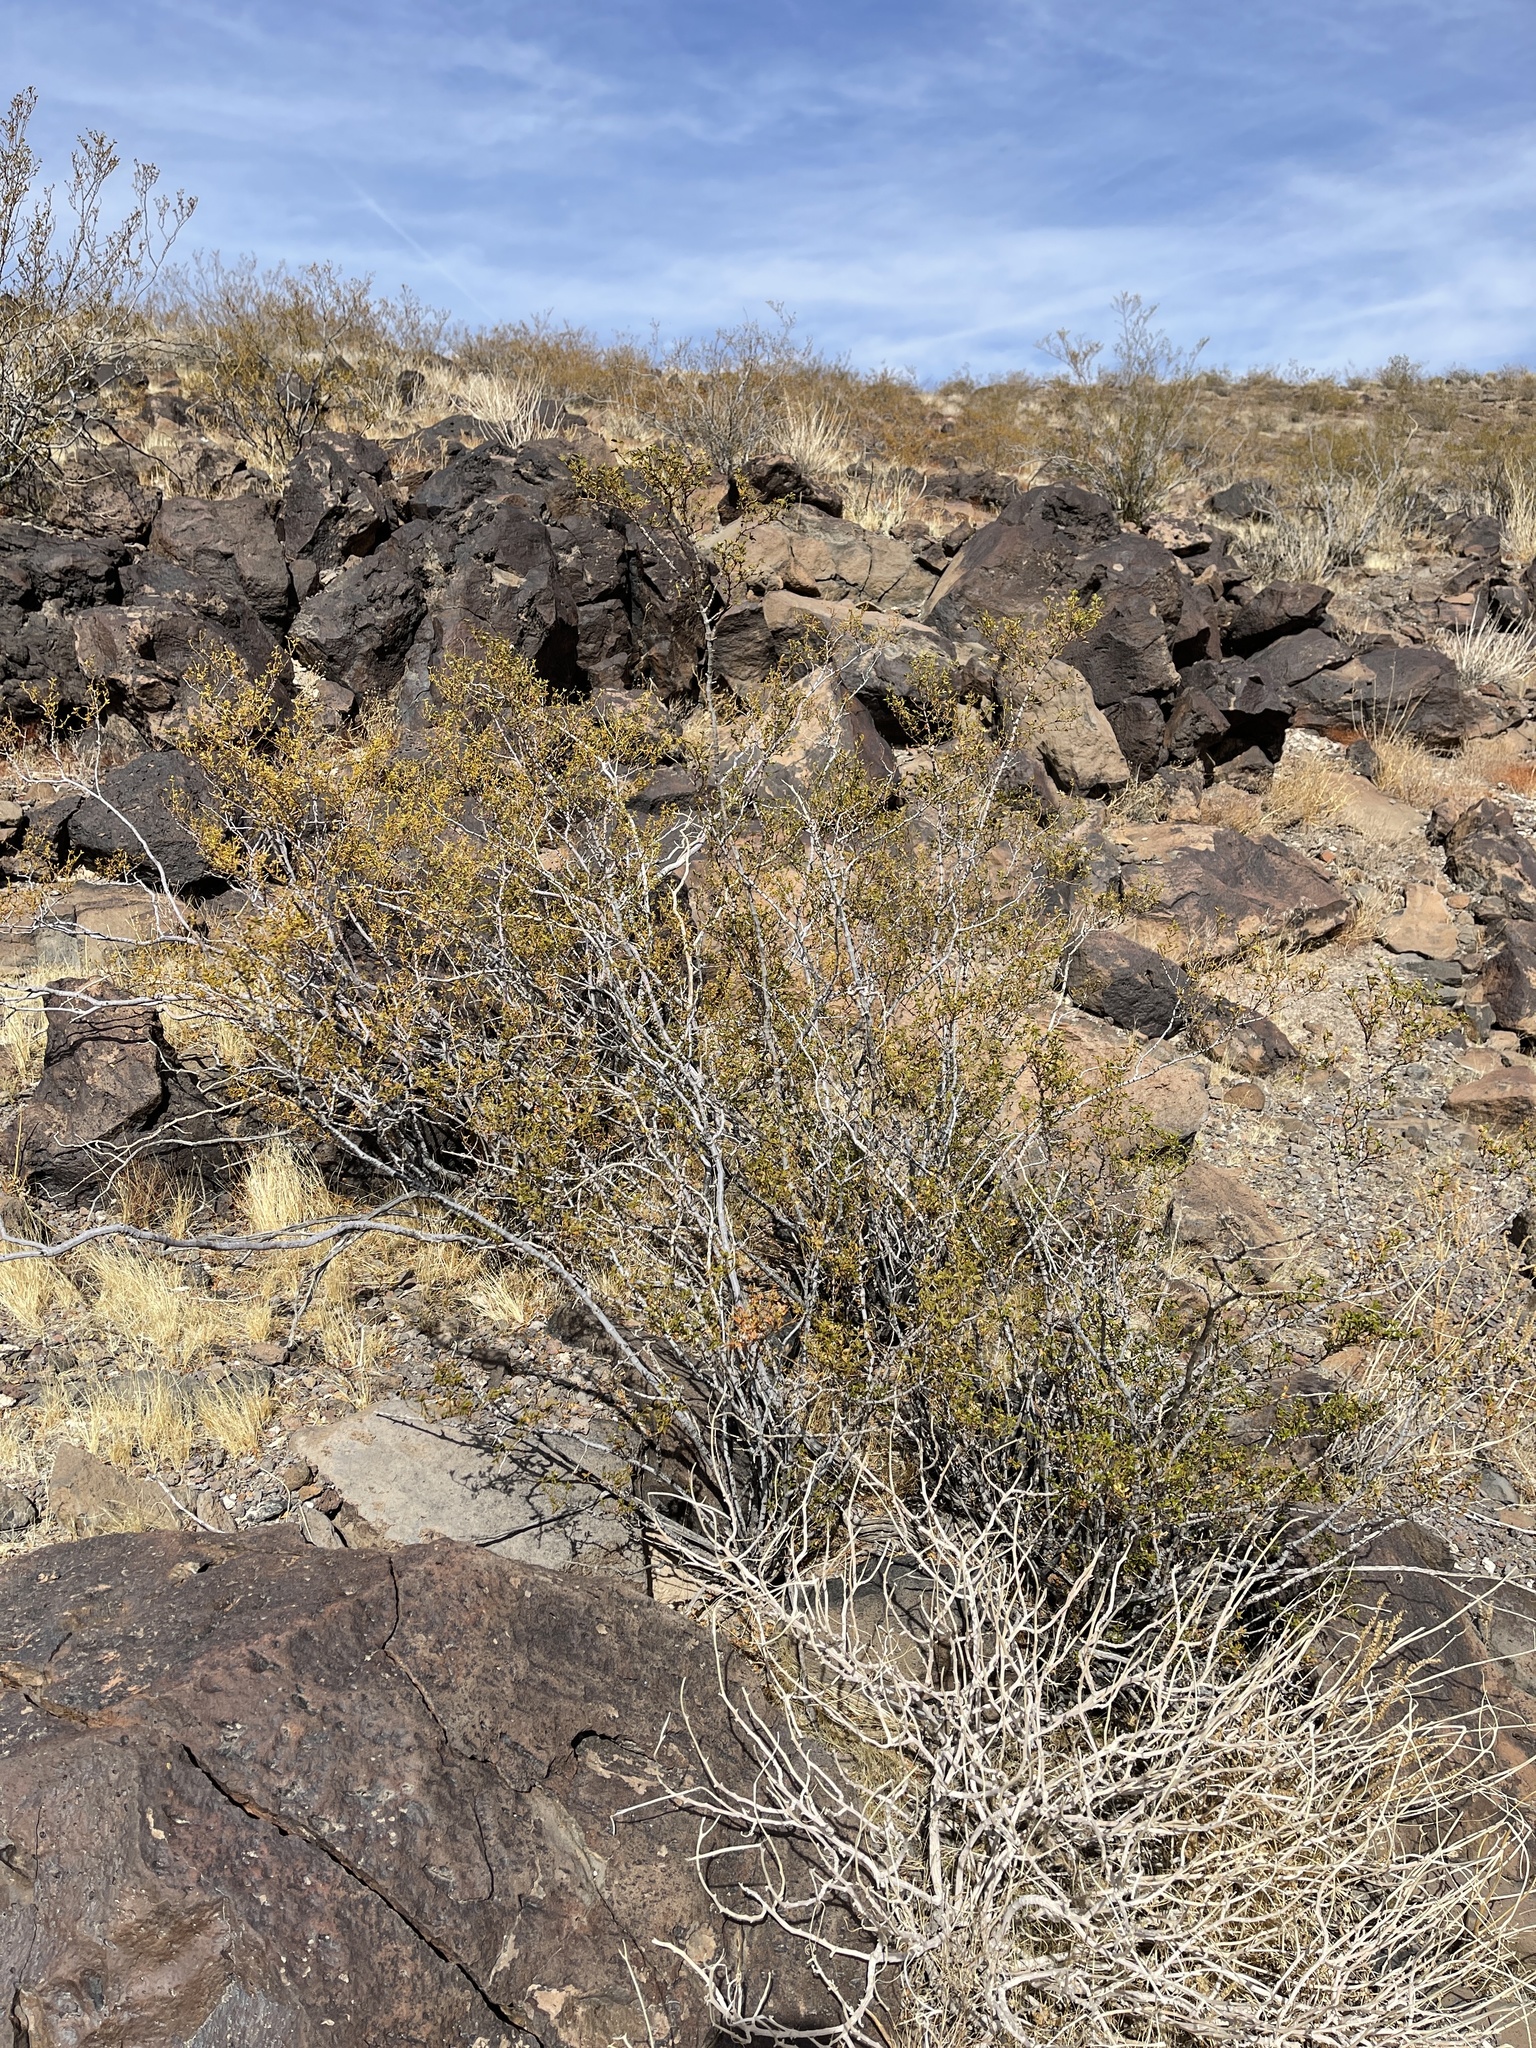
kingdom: Plantae
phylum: Tracheophyta
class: Magnoliopsida
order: Zygophyllales
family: Zygophyllaceae
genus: Larrea
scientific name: Larrea tridentata
